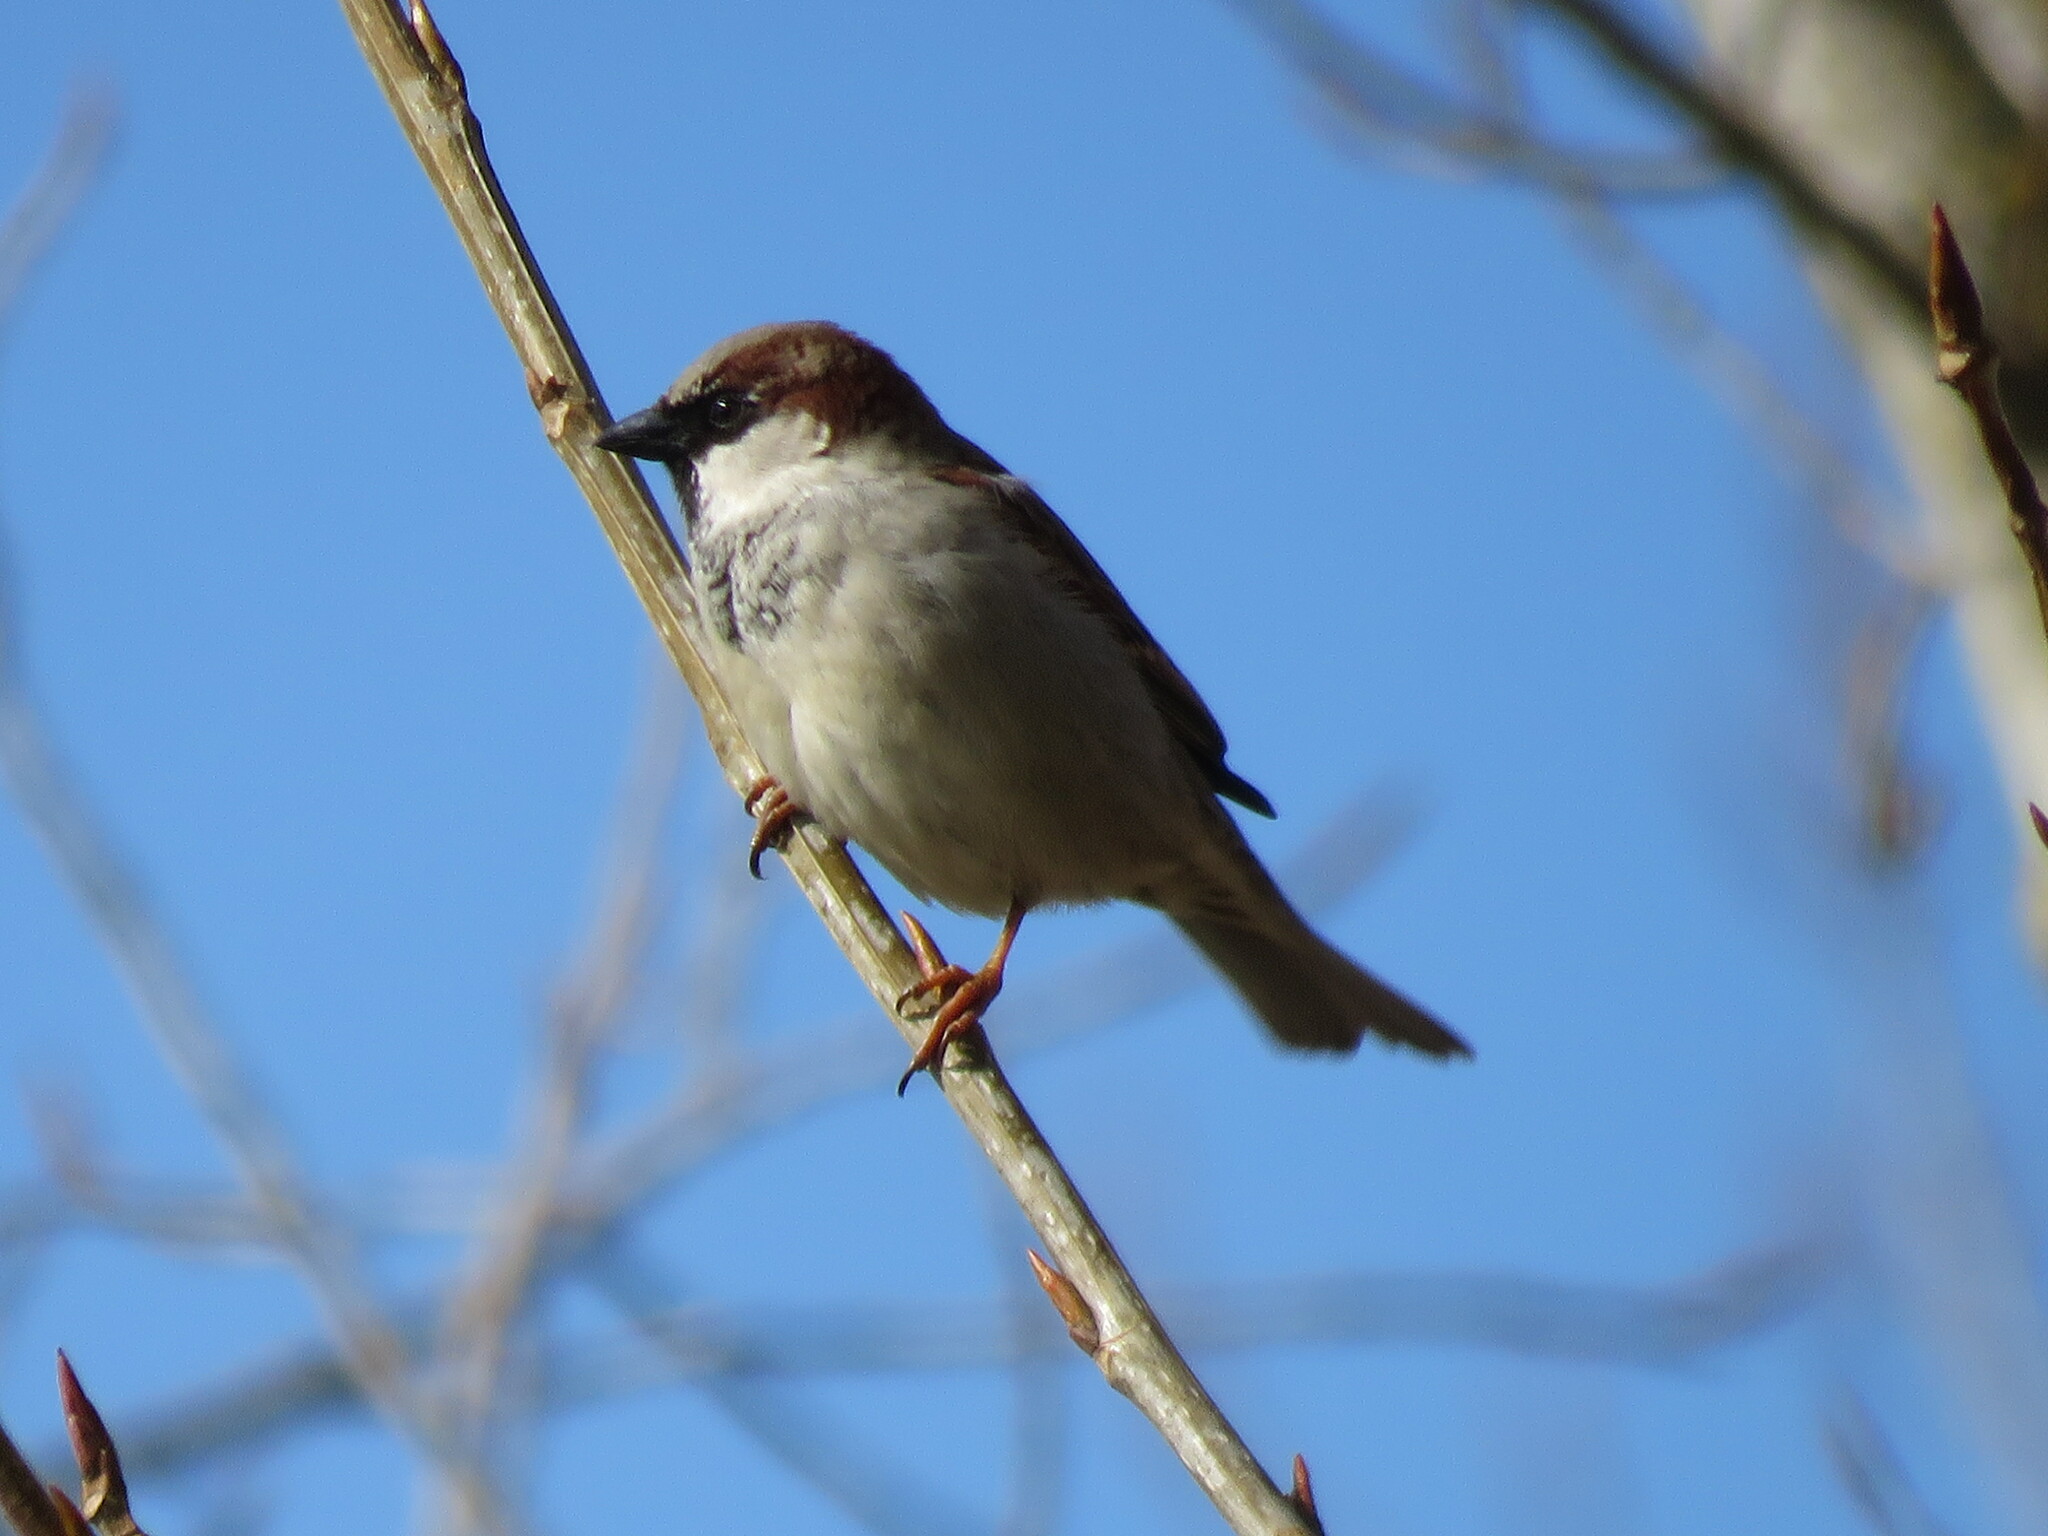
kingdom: Animalia
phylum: Chordata
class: Aves
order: Passeriformes
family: Passeridae
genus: Passer
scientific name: Passer domesticus
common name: House sparrow
